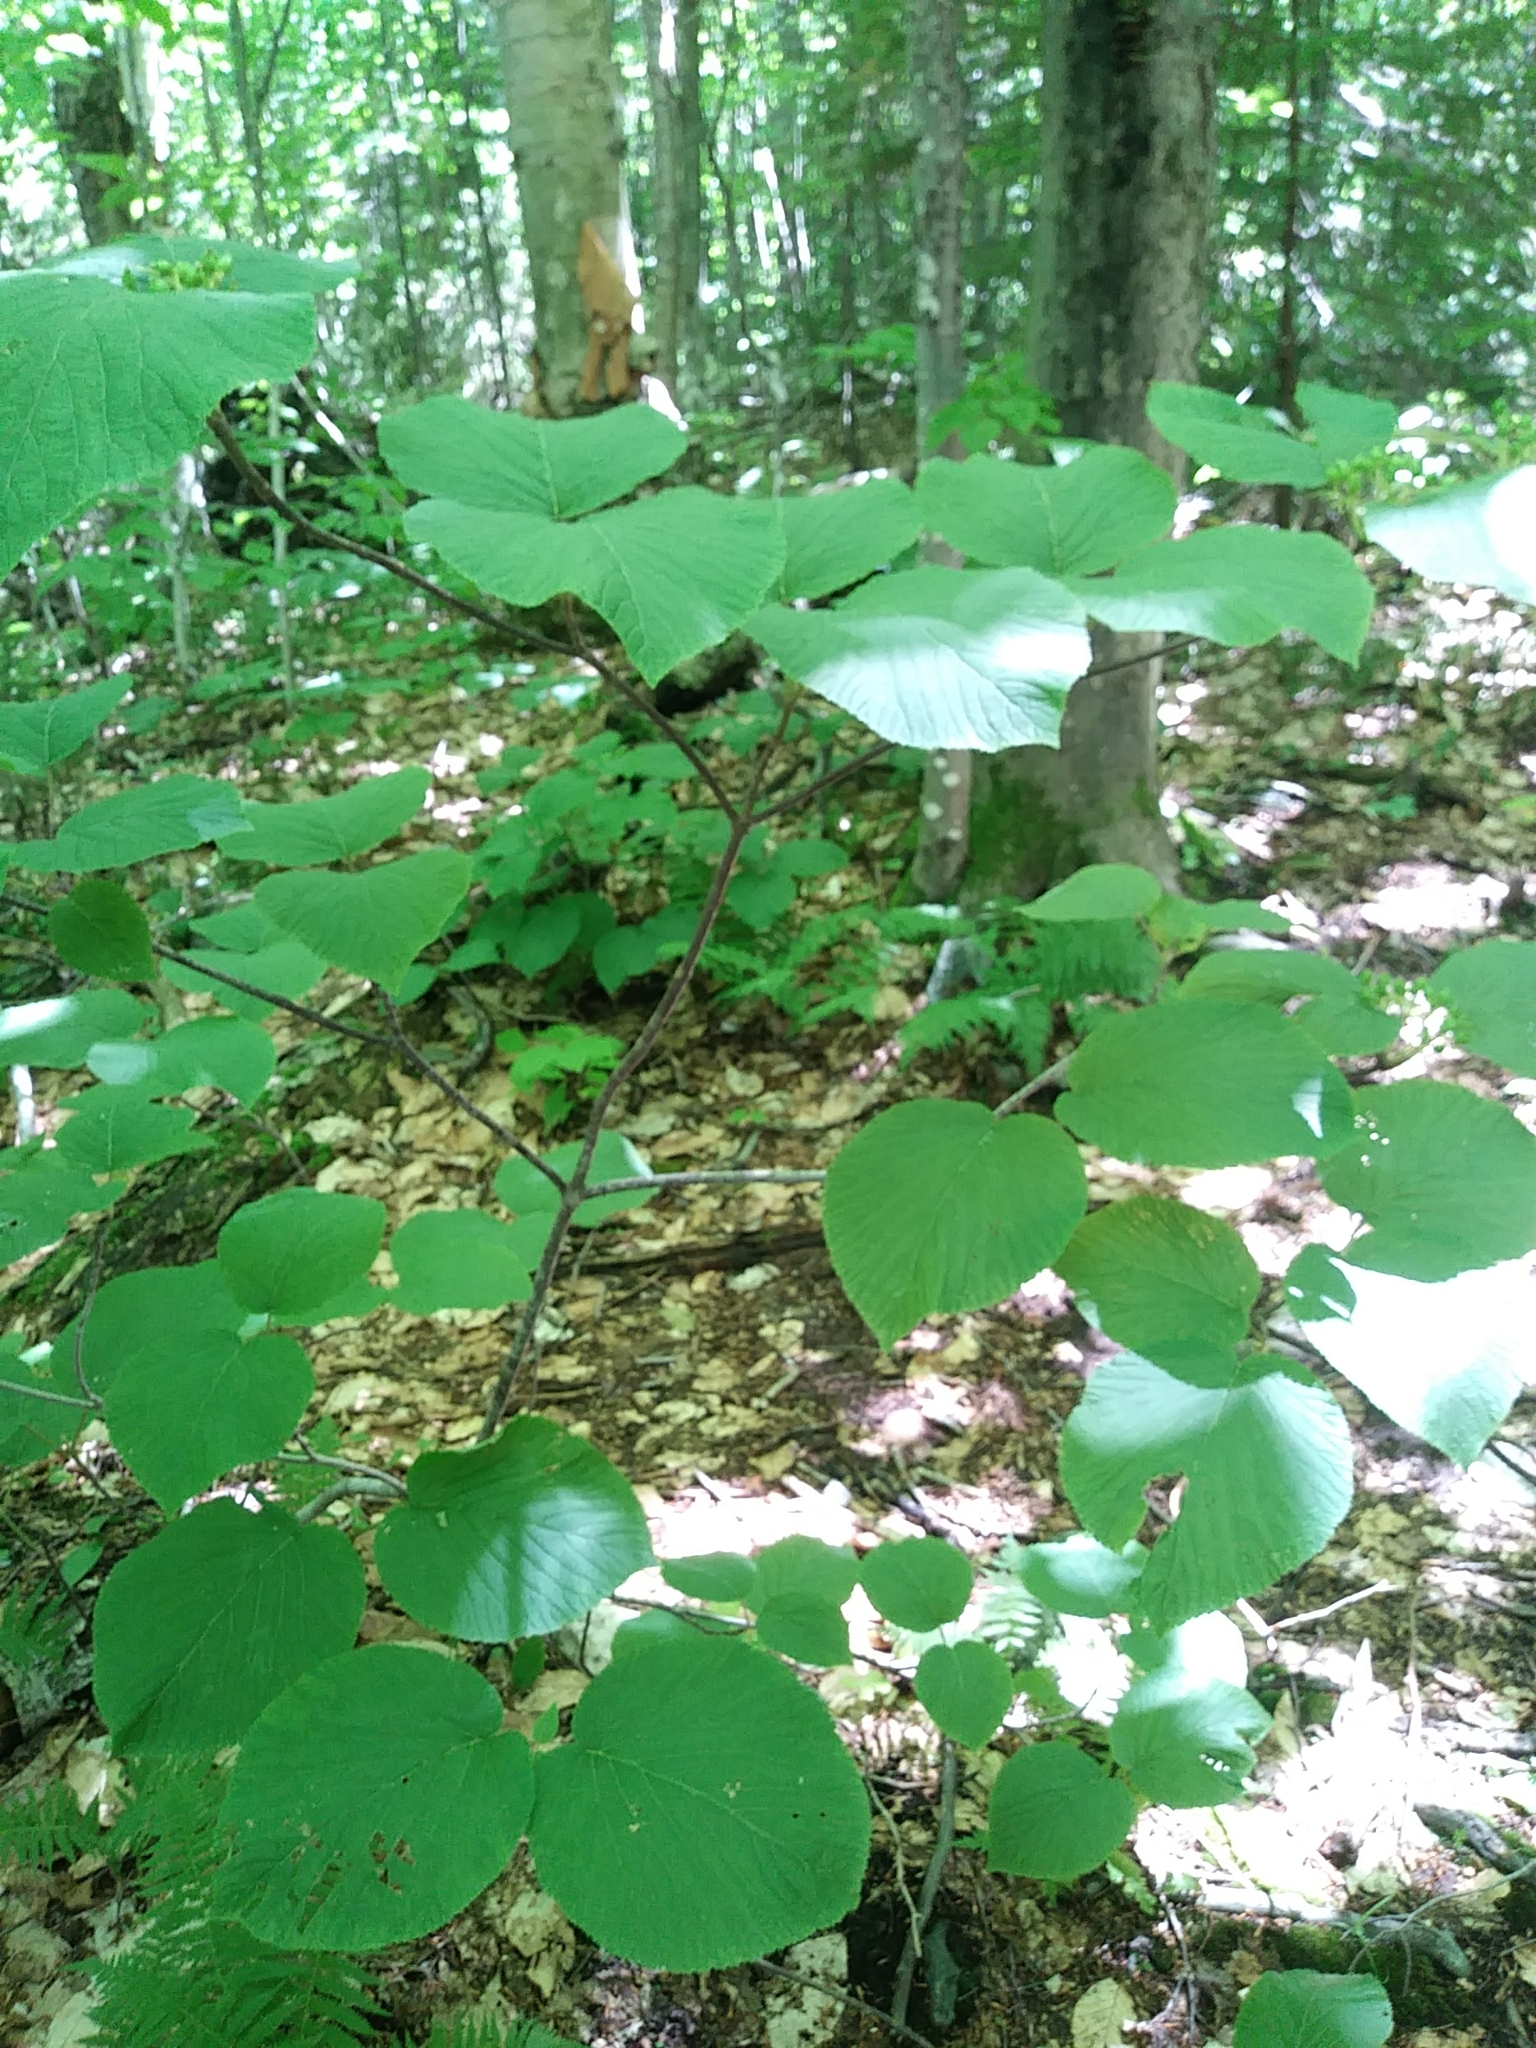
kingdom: Plantae
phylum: Tracheophyta
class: Magnoliopsida
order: Dipsacales
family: Viburnaceae
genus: Viburnum
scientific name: Viburnum lantanoides
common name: Hobblebush
